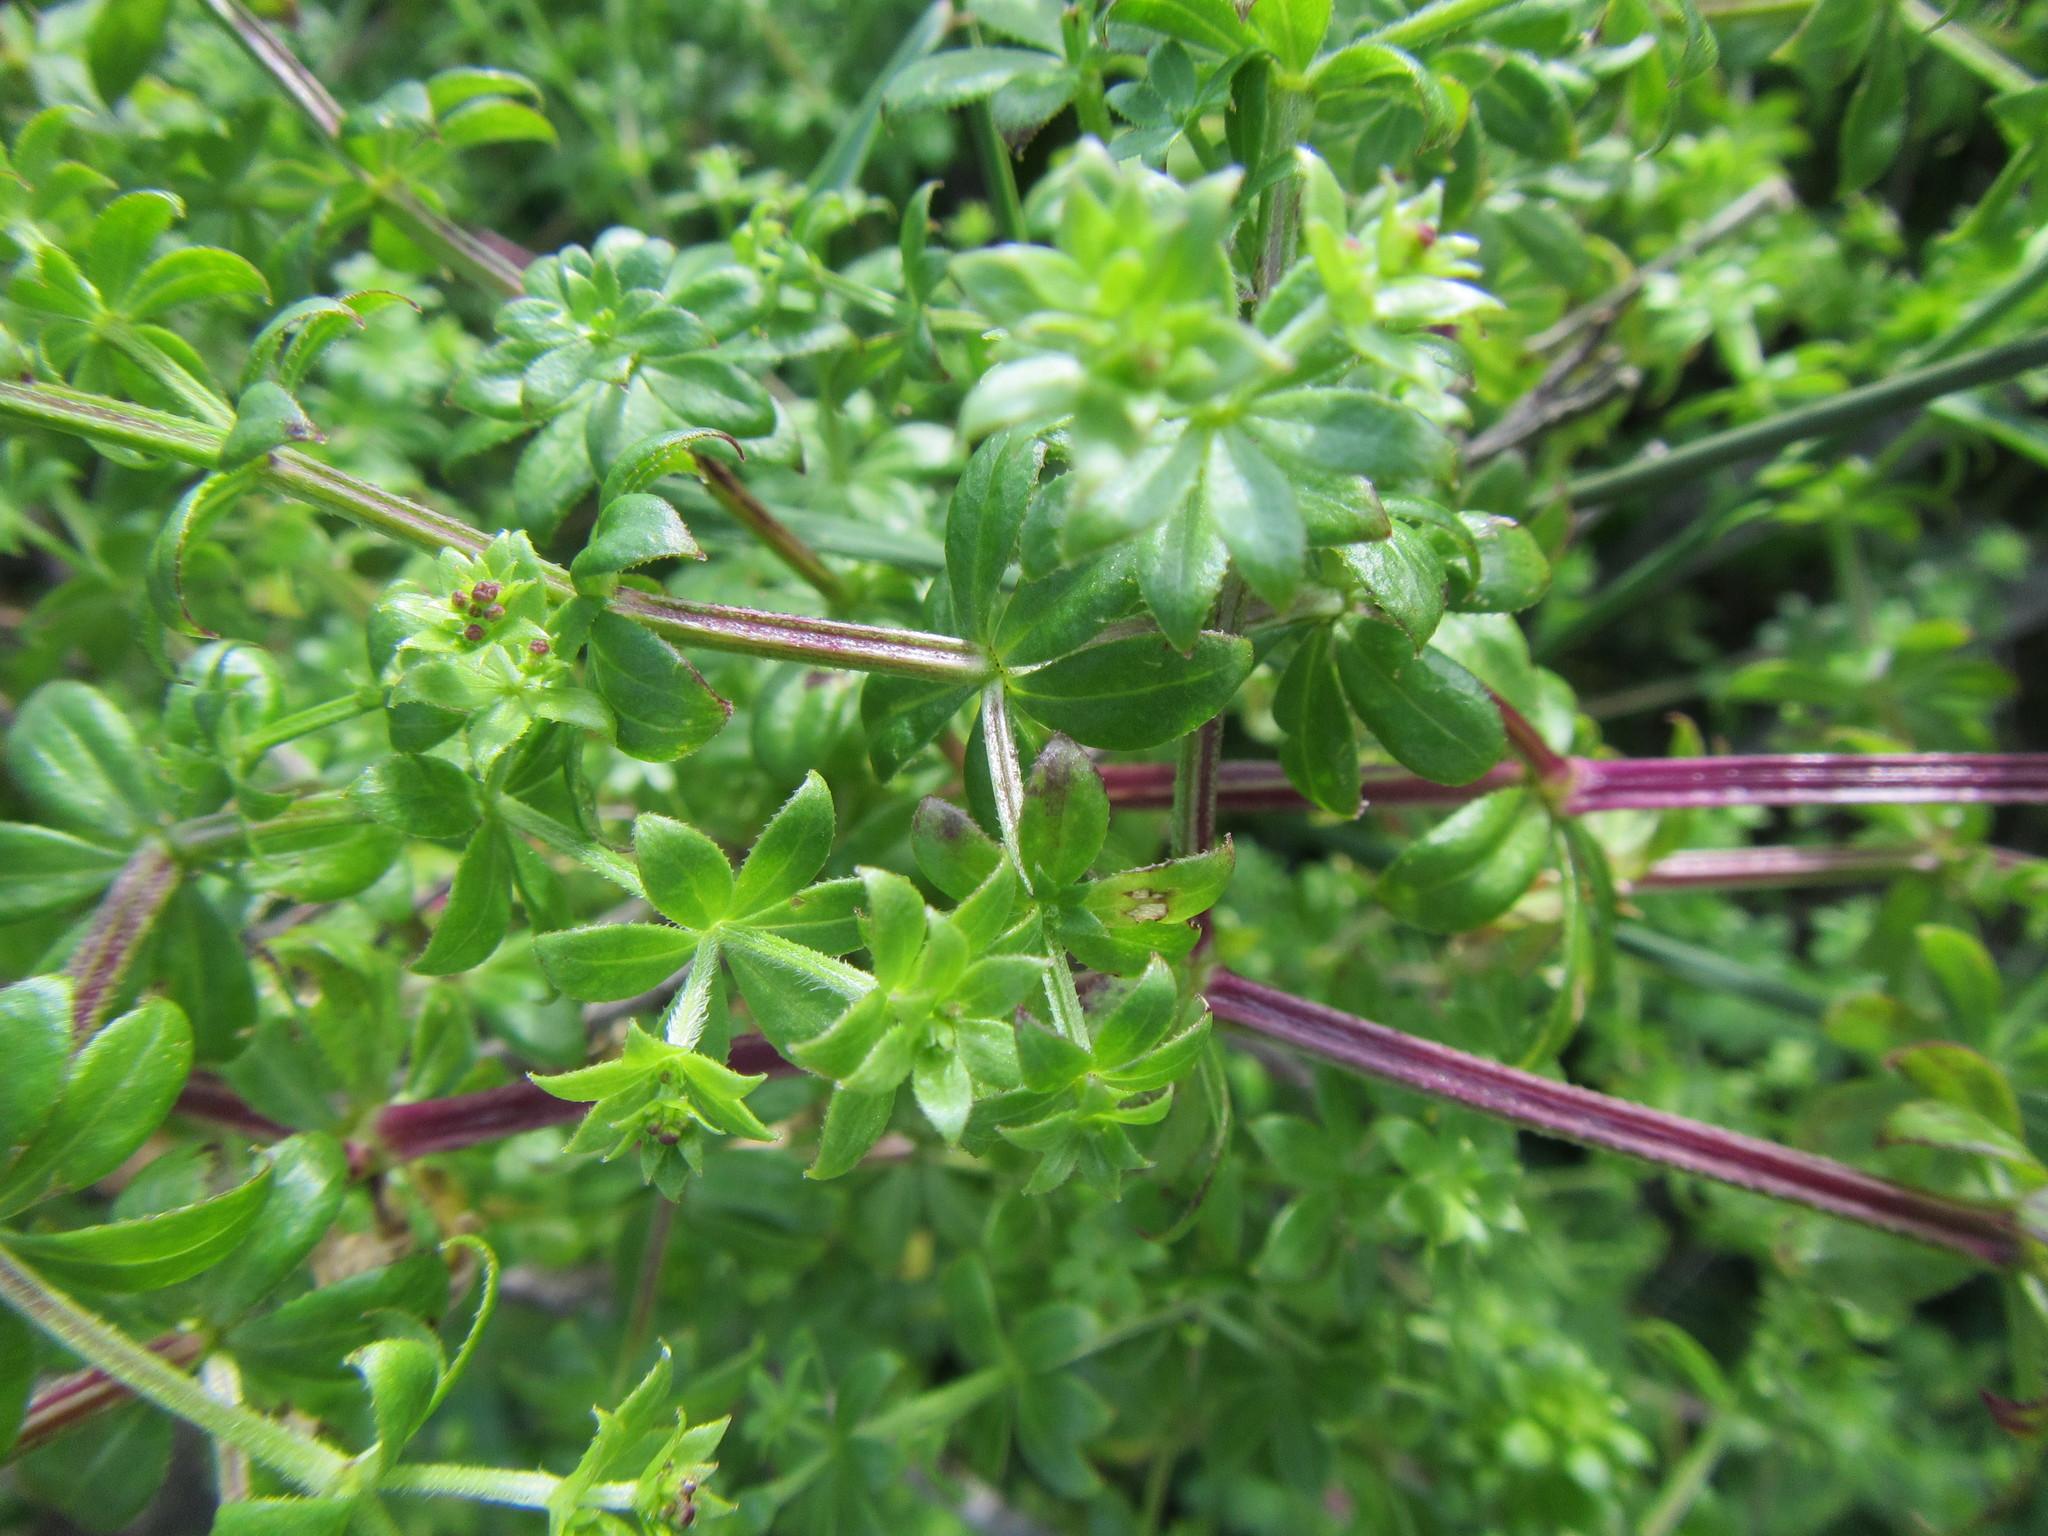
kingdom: Plantae
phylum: Tracheophyta
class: Magnoliopsida
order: Gentianales
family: Rubiaceae
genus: Galium
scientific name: Galium tomentosum
